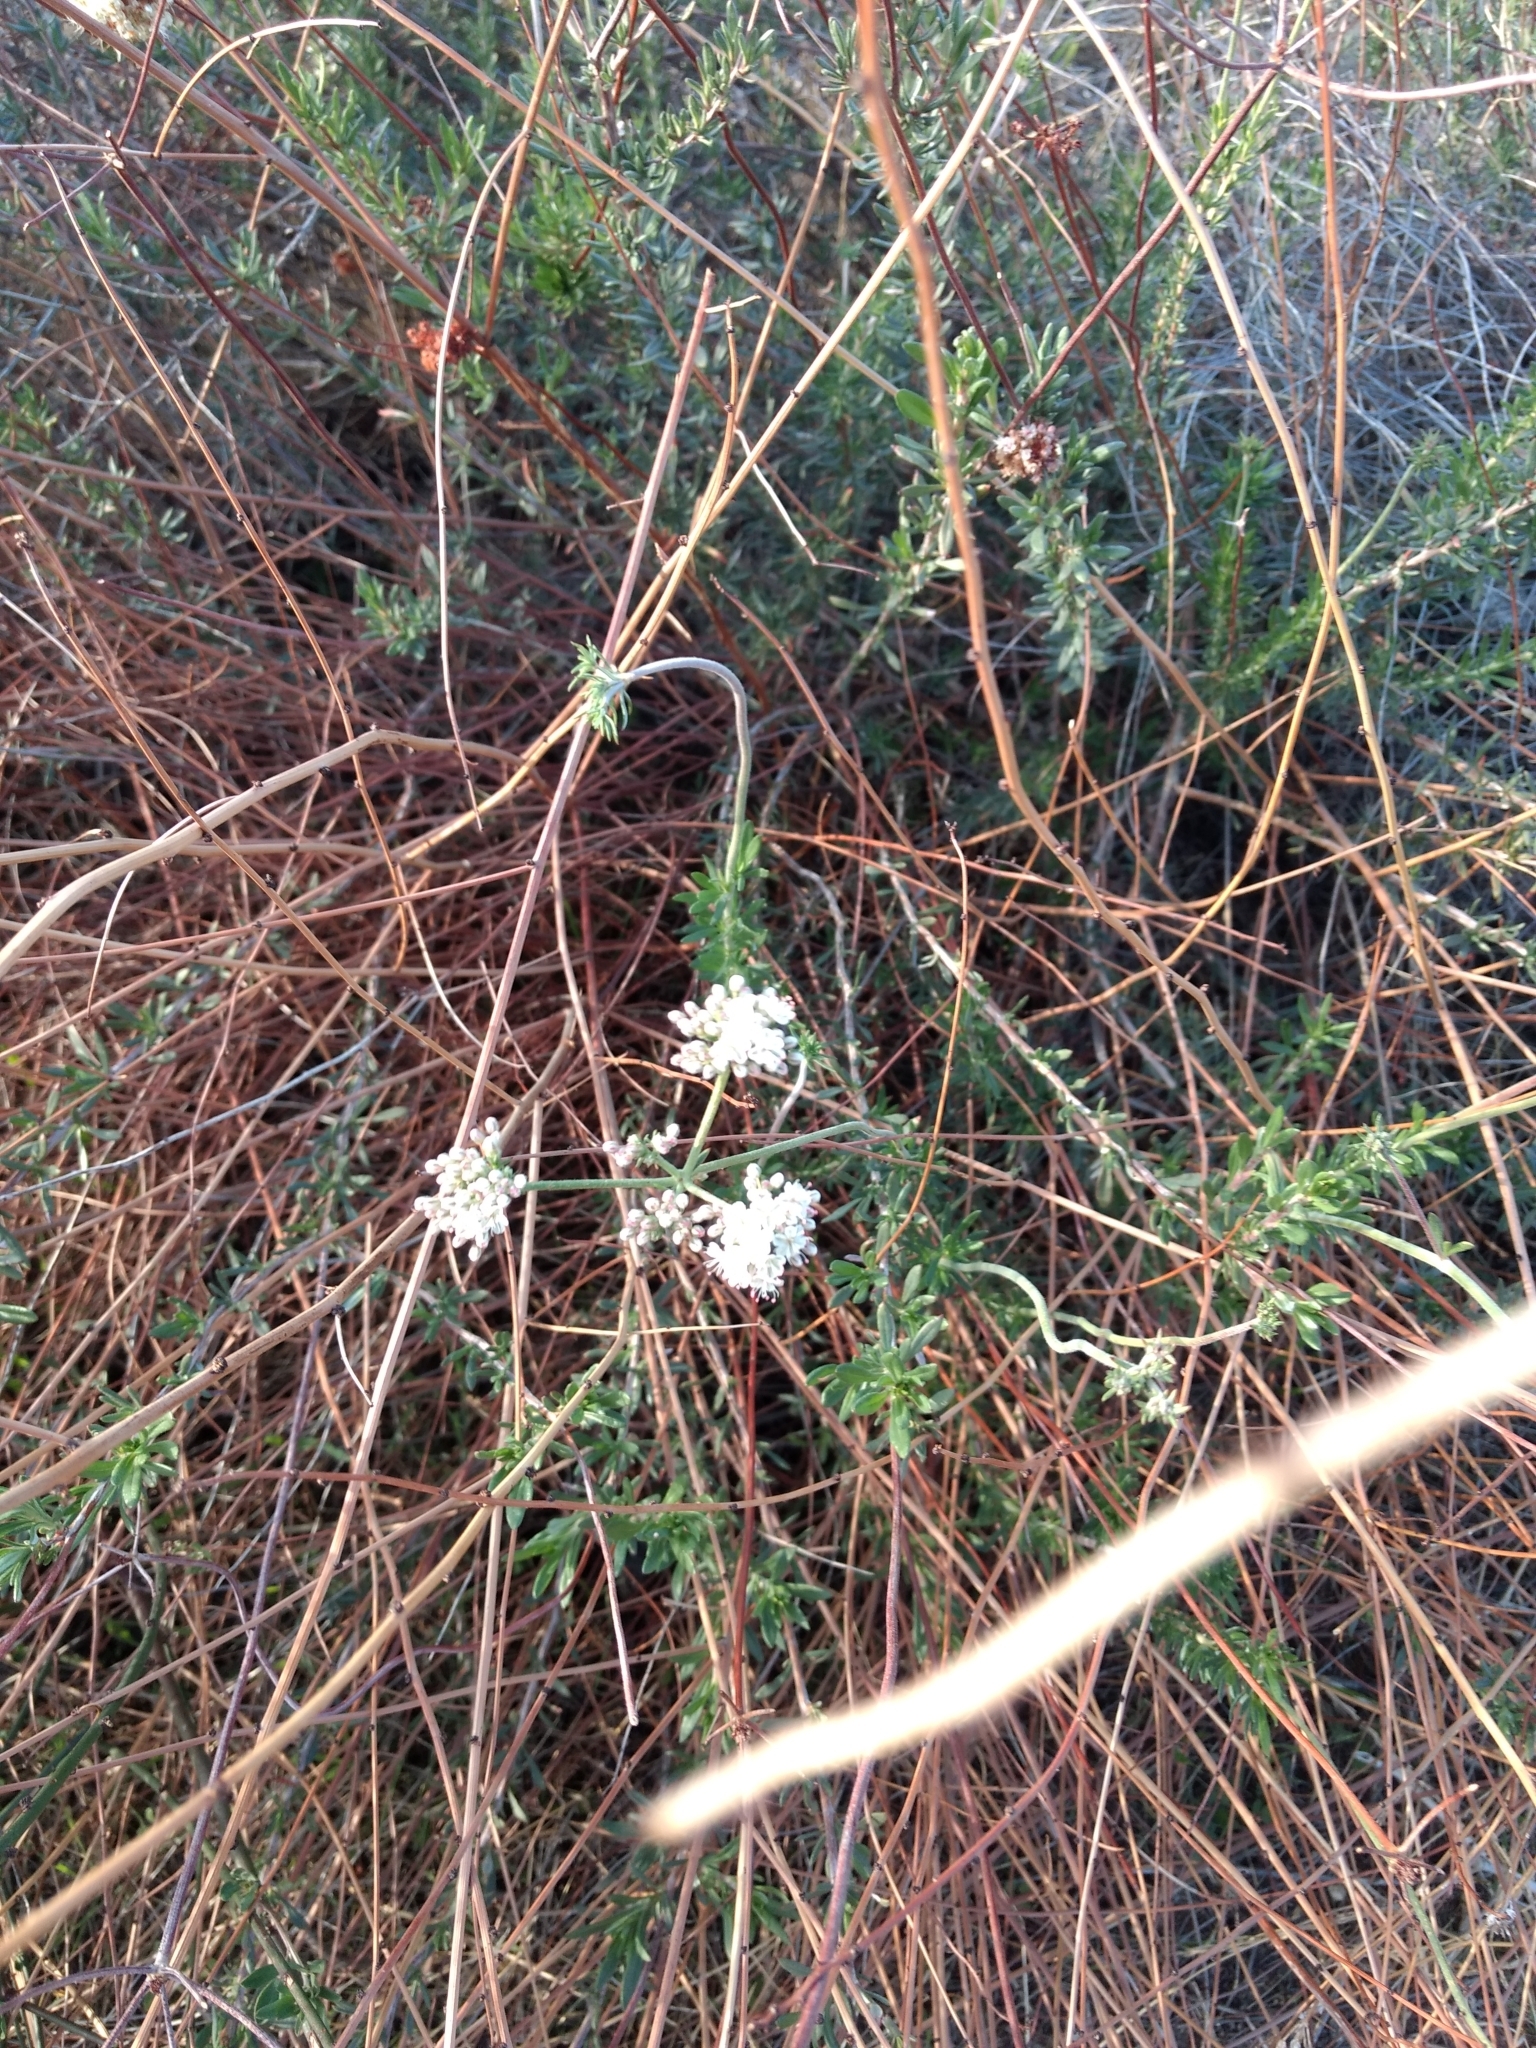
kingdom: Plantae
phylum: Tracheophyta
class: Magnoliopsida
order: Caryophyllales
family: Polygonaceae
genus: Eriogonum
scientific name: Eriogonum fasciculatum
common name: California wild buckwheat
